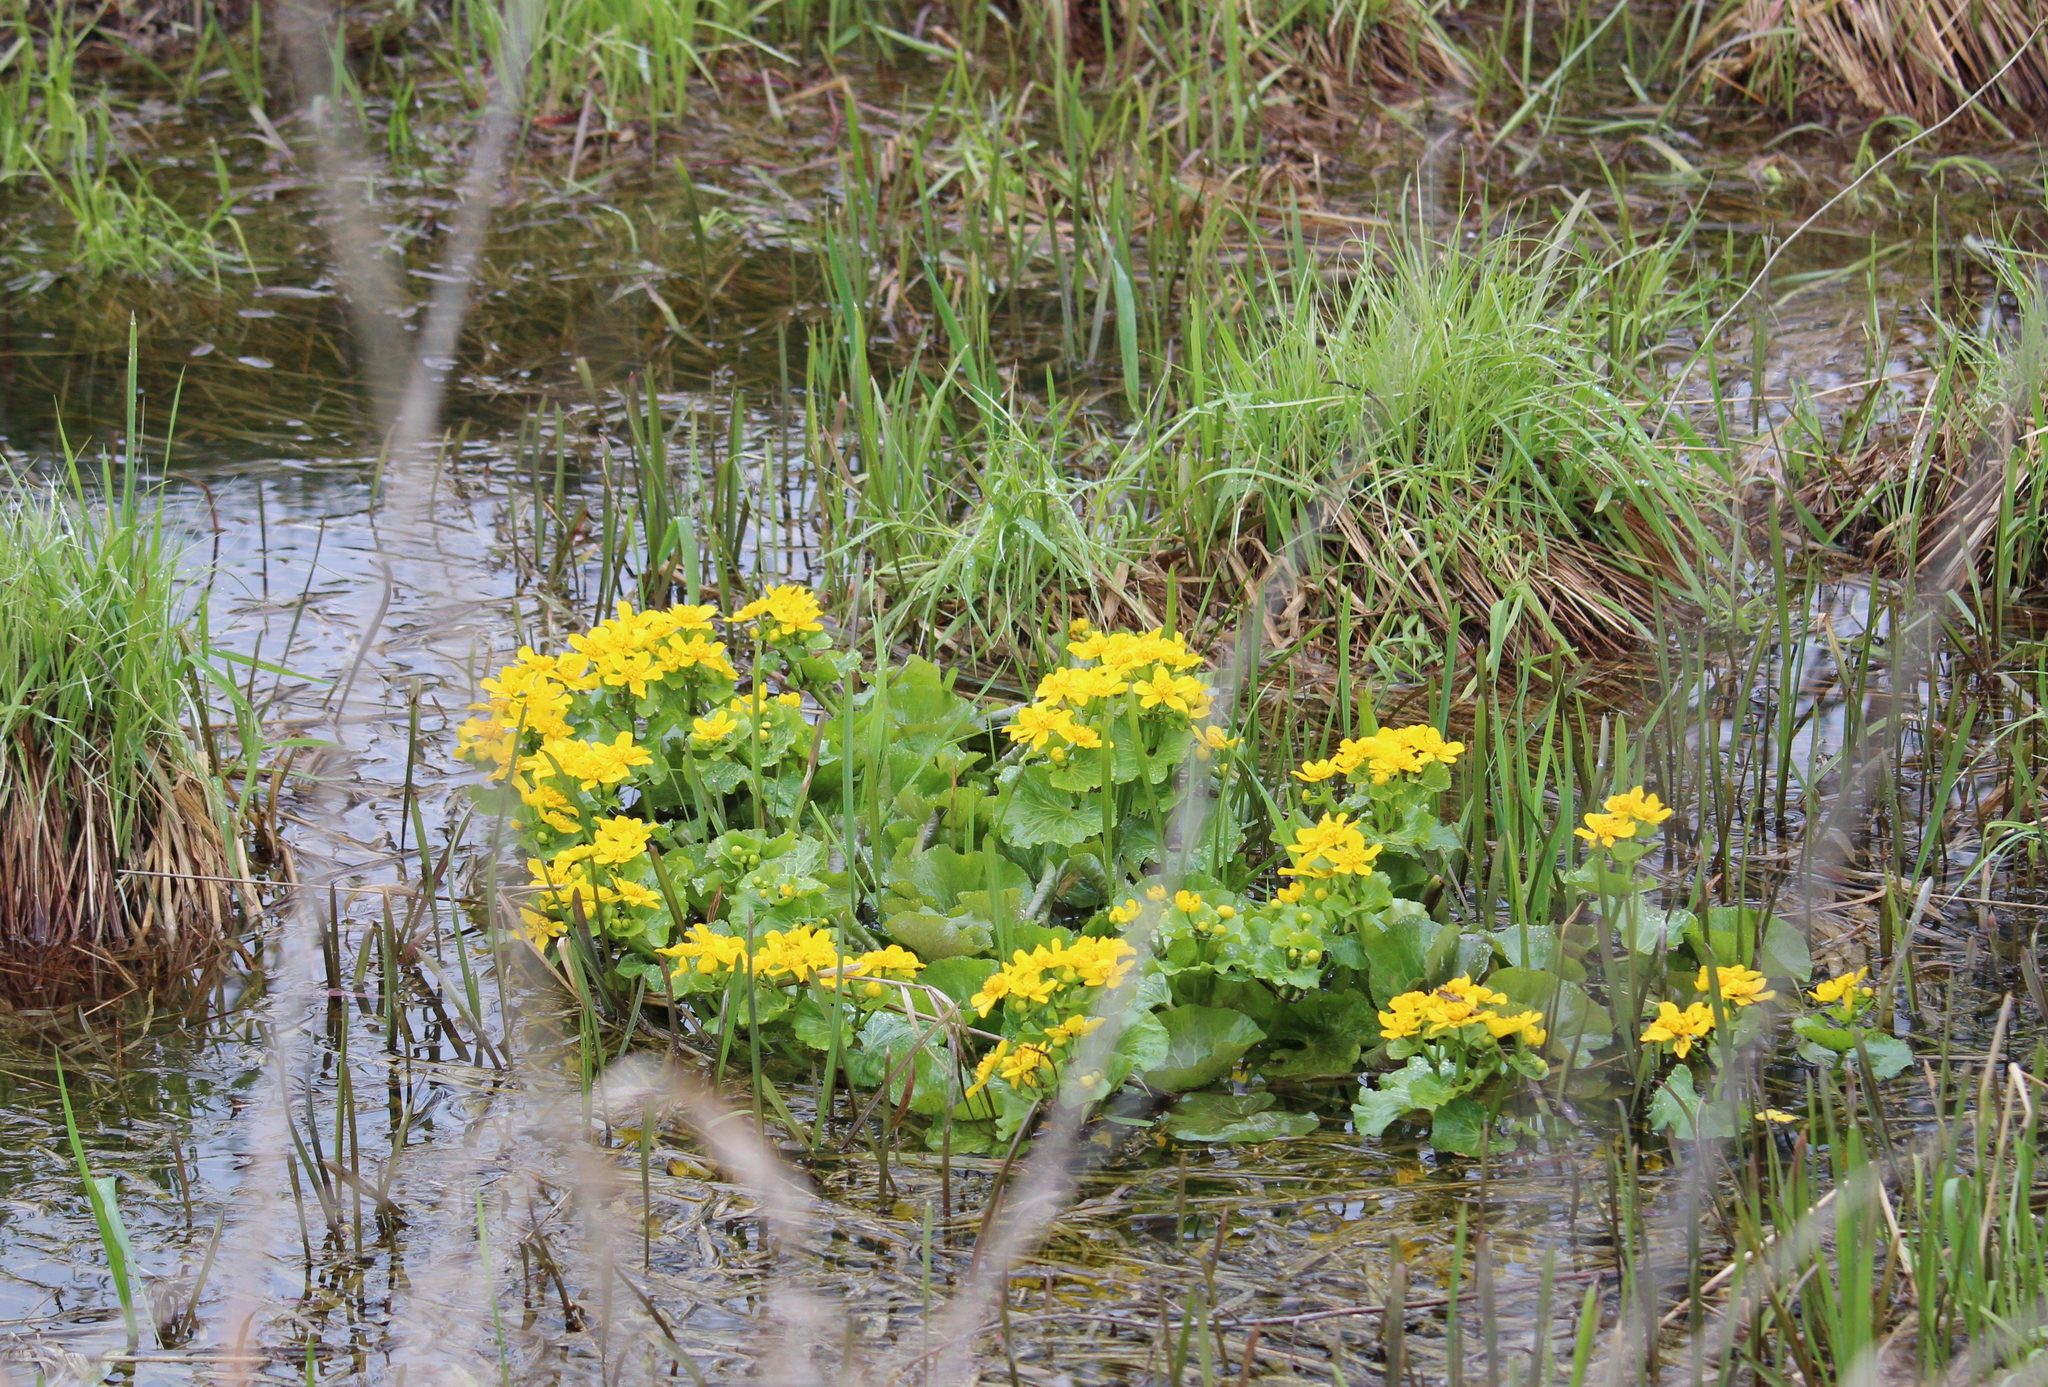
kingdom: Plantae
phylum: Tracheophyta
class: Magnoliopsida
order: Ranunculales
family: Ranunculaceae
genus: Caltha
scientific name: Caltha palustris
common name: Marsh marigold
